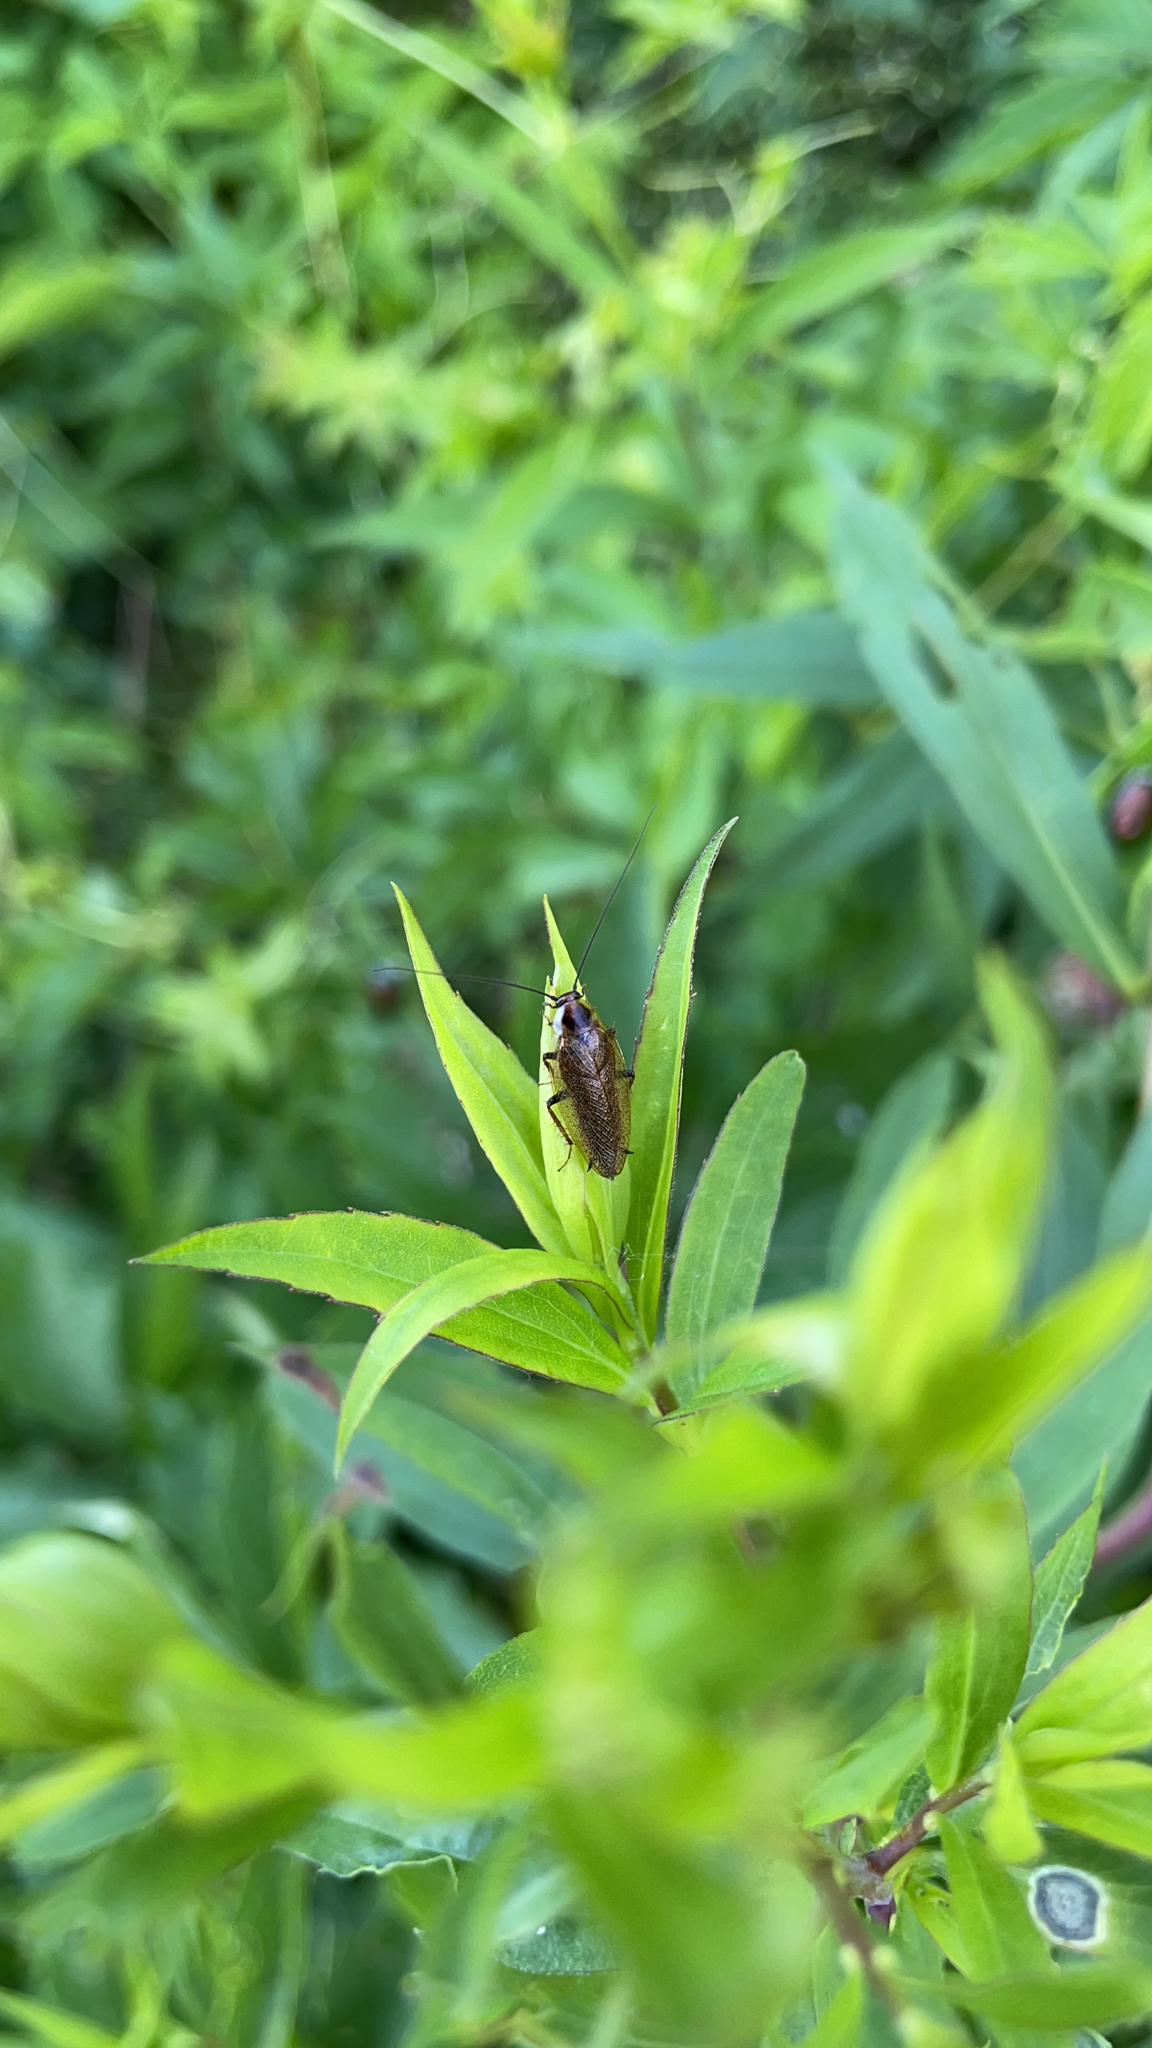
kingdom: Animalia
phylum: Arthropoda
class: Insecta
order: Blattodea
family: Ectobiidae
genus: Ectobius
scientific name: Ectobius lapponicus
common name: Dusky cockroach
